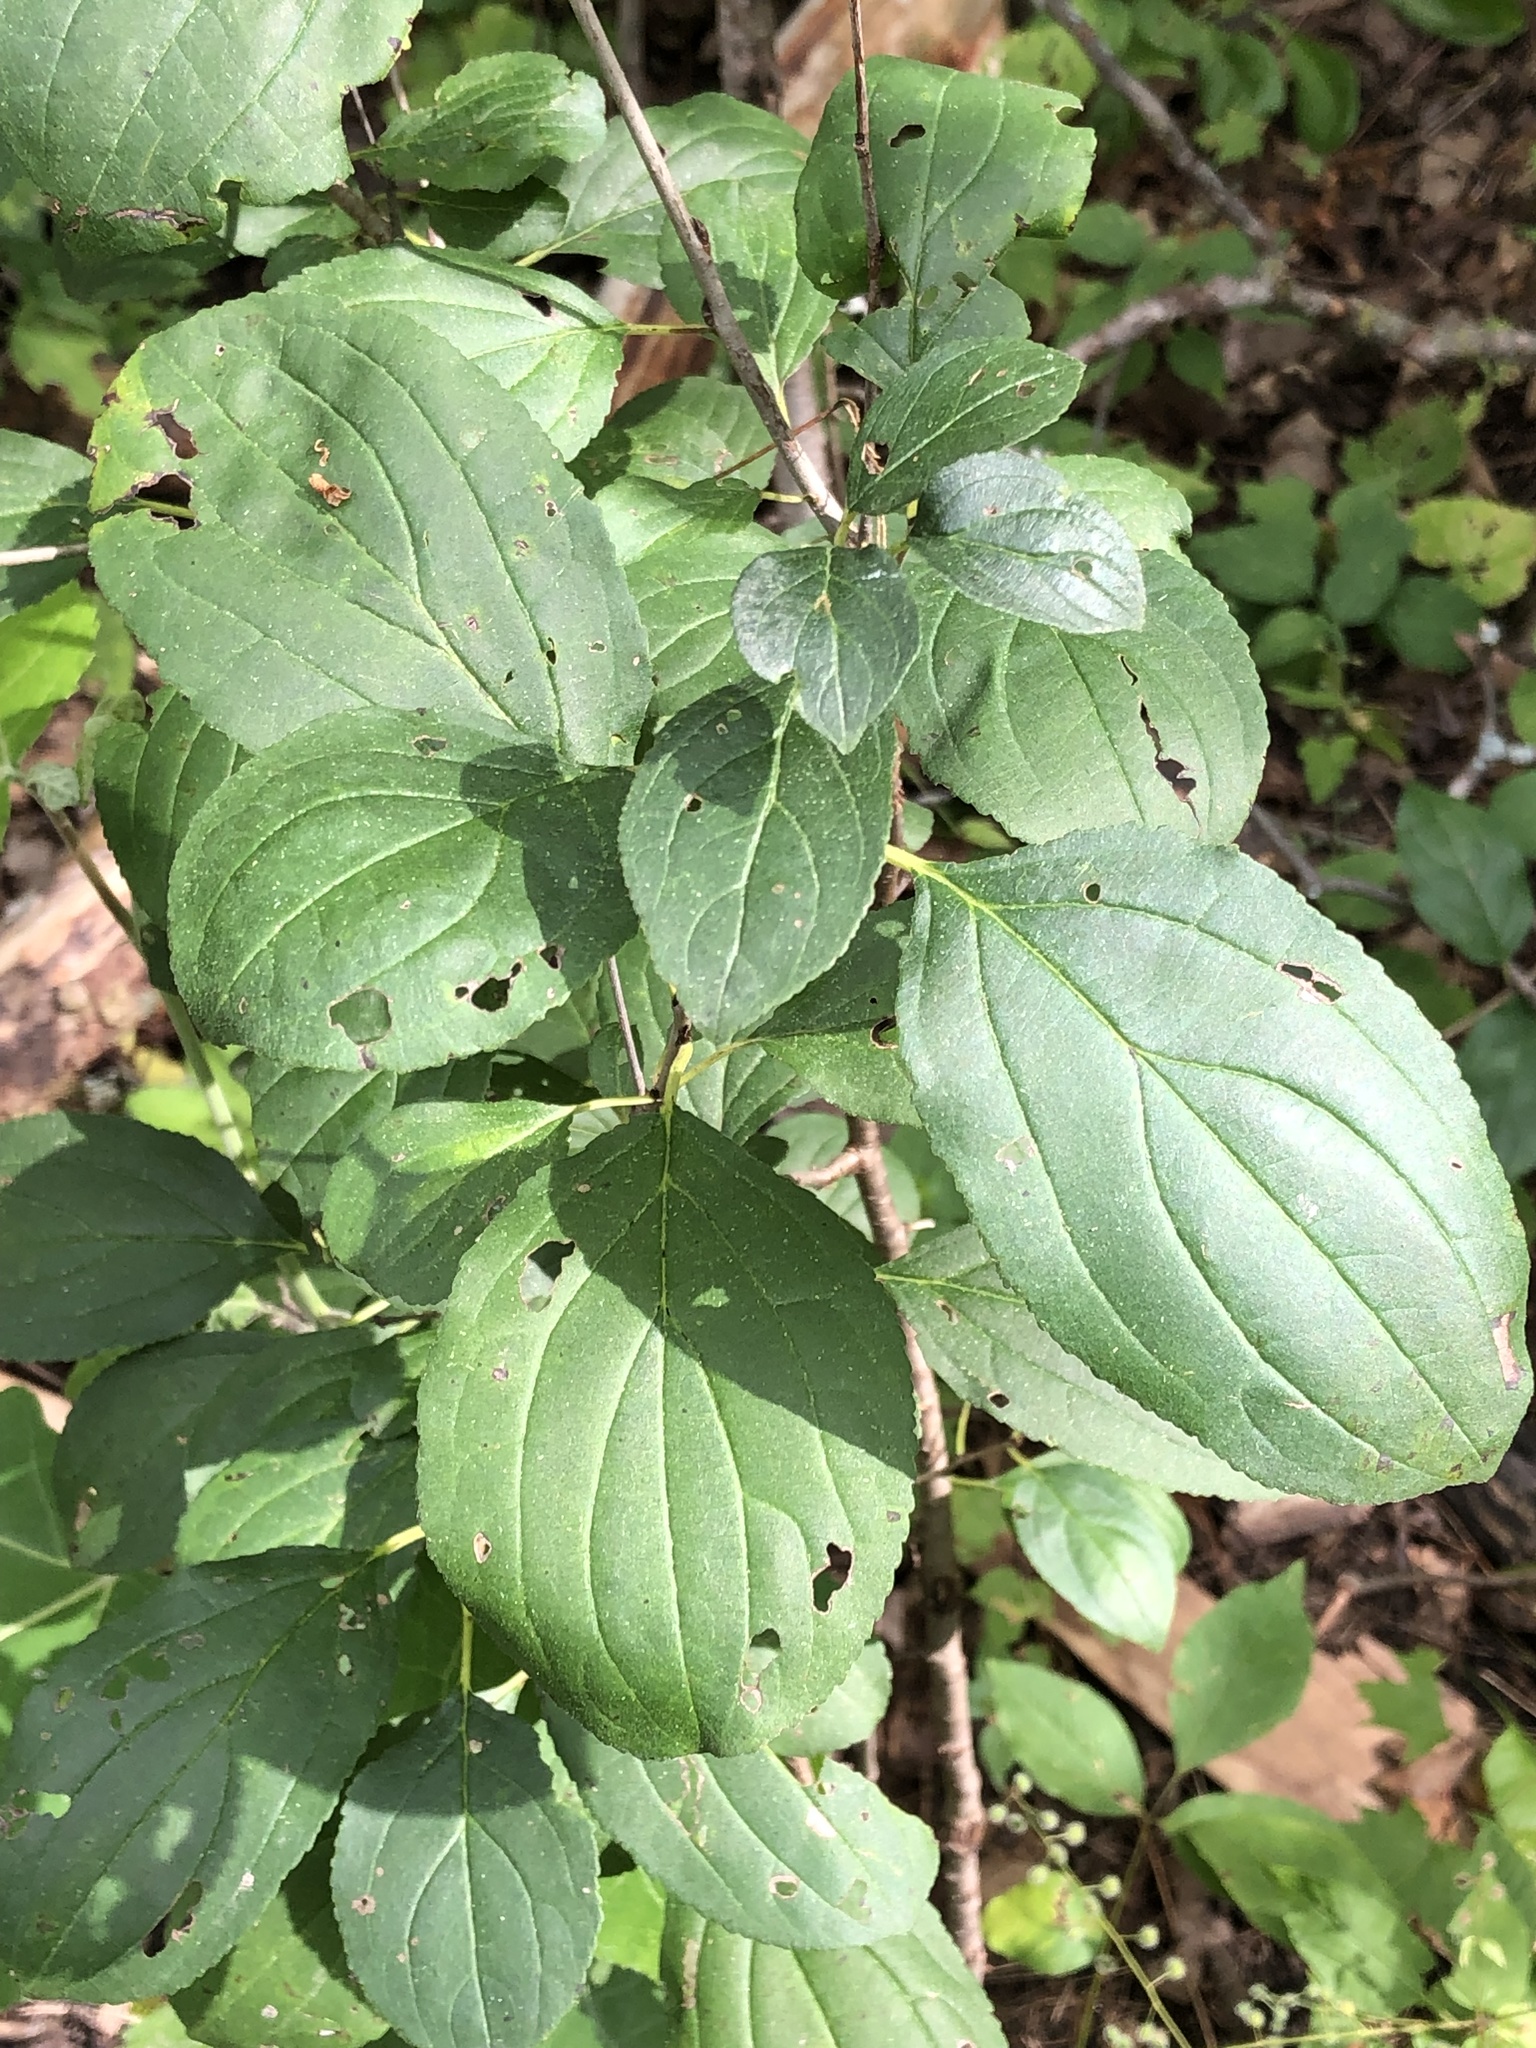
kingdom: Plantae
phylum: Tracheophyta
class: Magnoliopsida
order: Rosales
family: Rhamnaceae
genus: Rhamnus
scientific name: Rhamnus cathartica
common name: Common buckthorn
